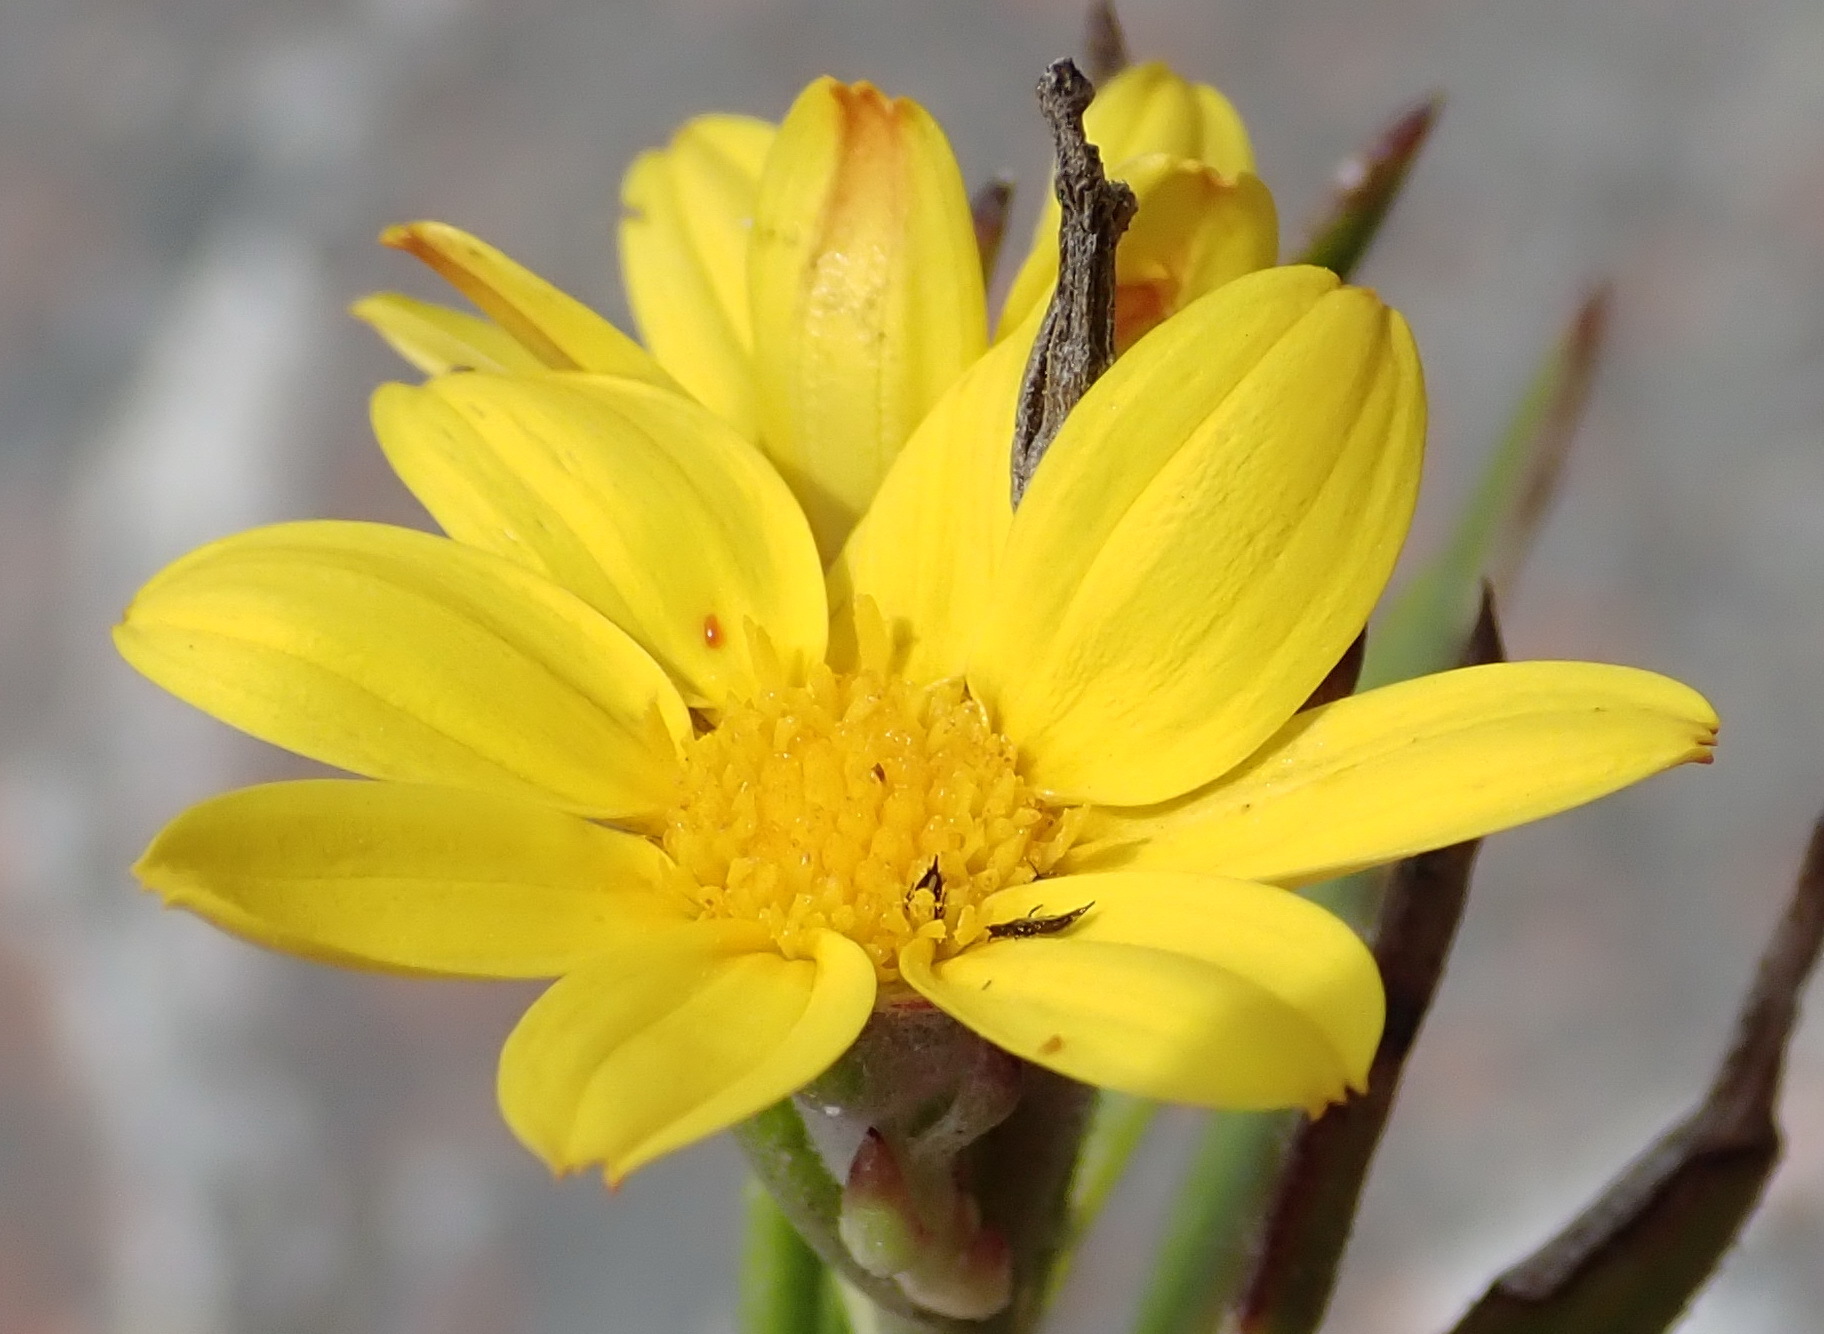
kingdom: Plantae
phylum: Tracheophyta
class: Magnoliopsida
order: Asterales
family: Asteraceae
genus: Osteospermum
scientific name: Osteospermum asperulum
